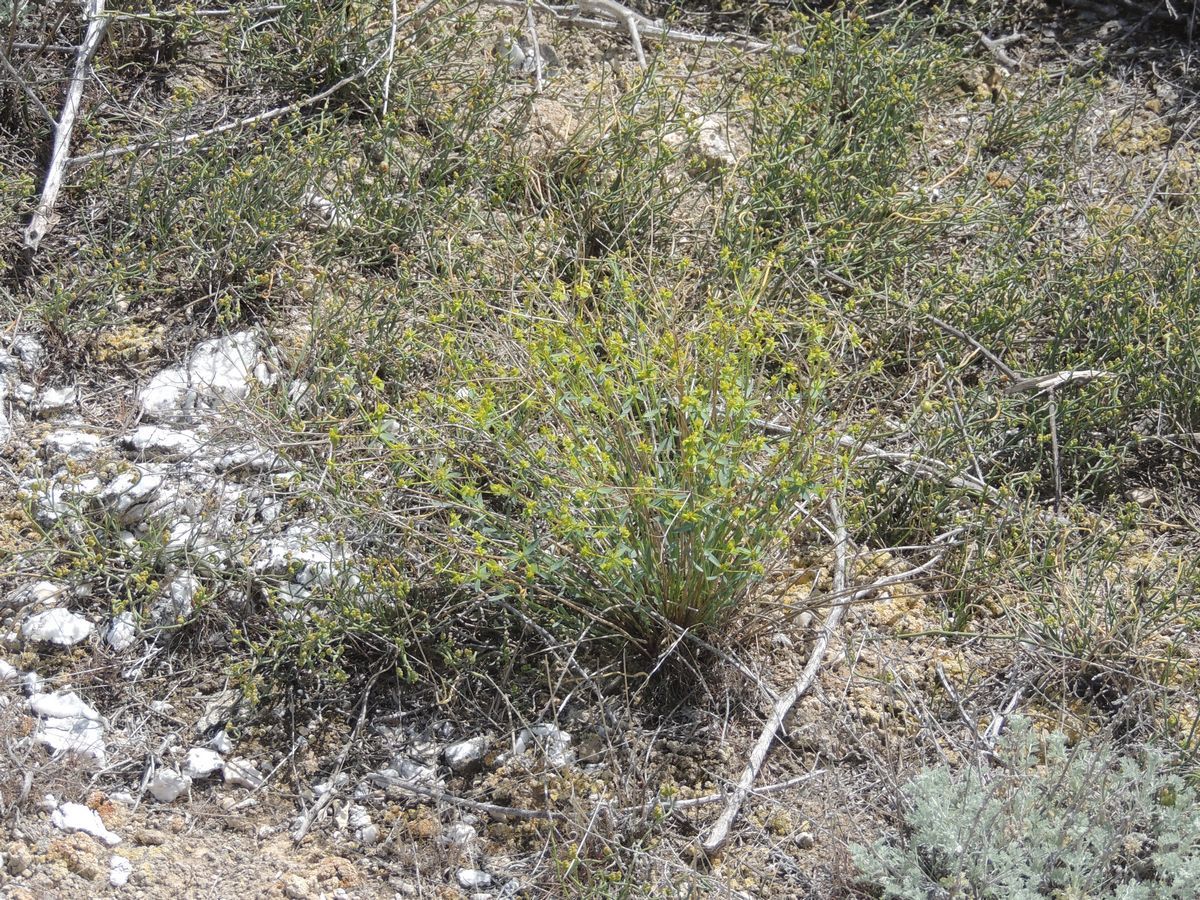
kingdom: Plantae
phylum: Tracheophyta
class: Magnoliopsida
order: Malpighiales
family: Euphorbiaceae
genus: Euphorbia
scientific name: Euphorbia seguieriana
